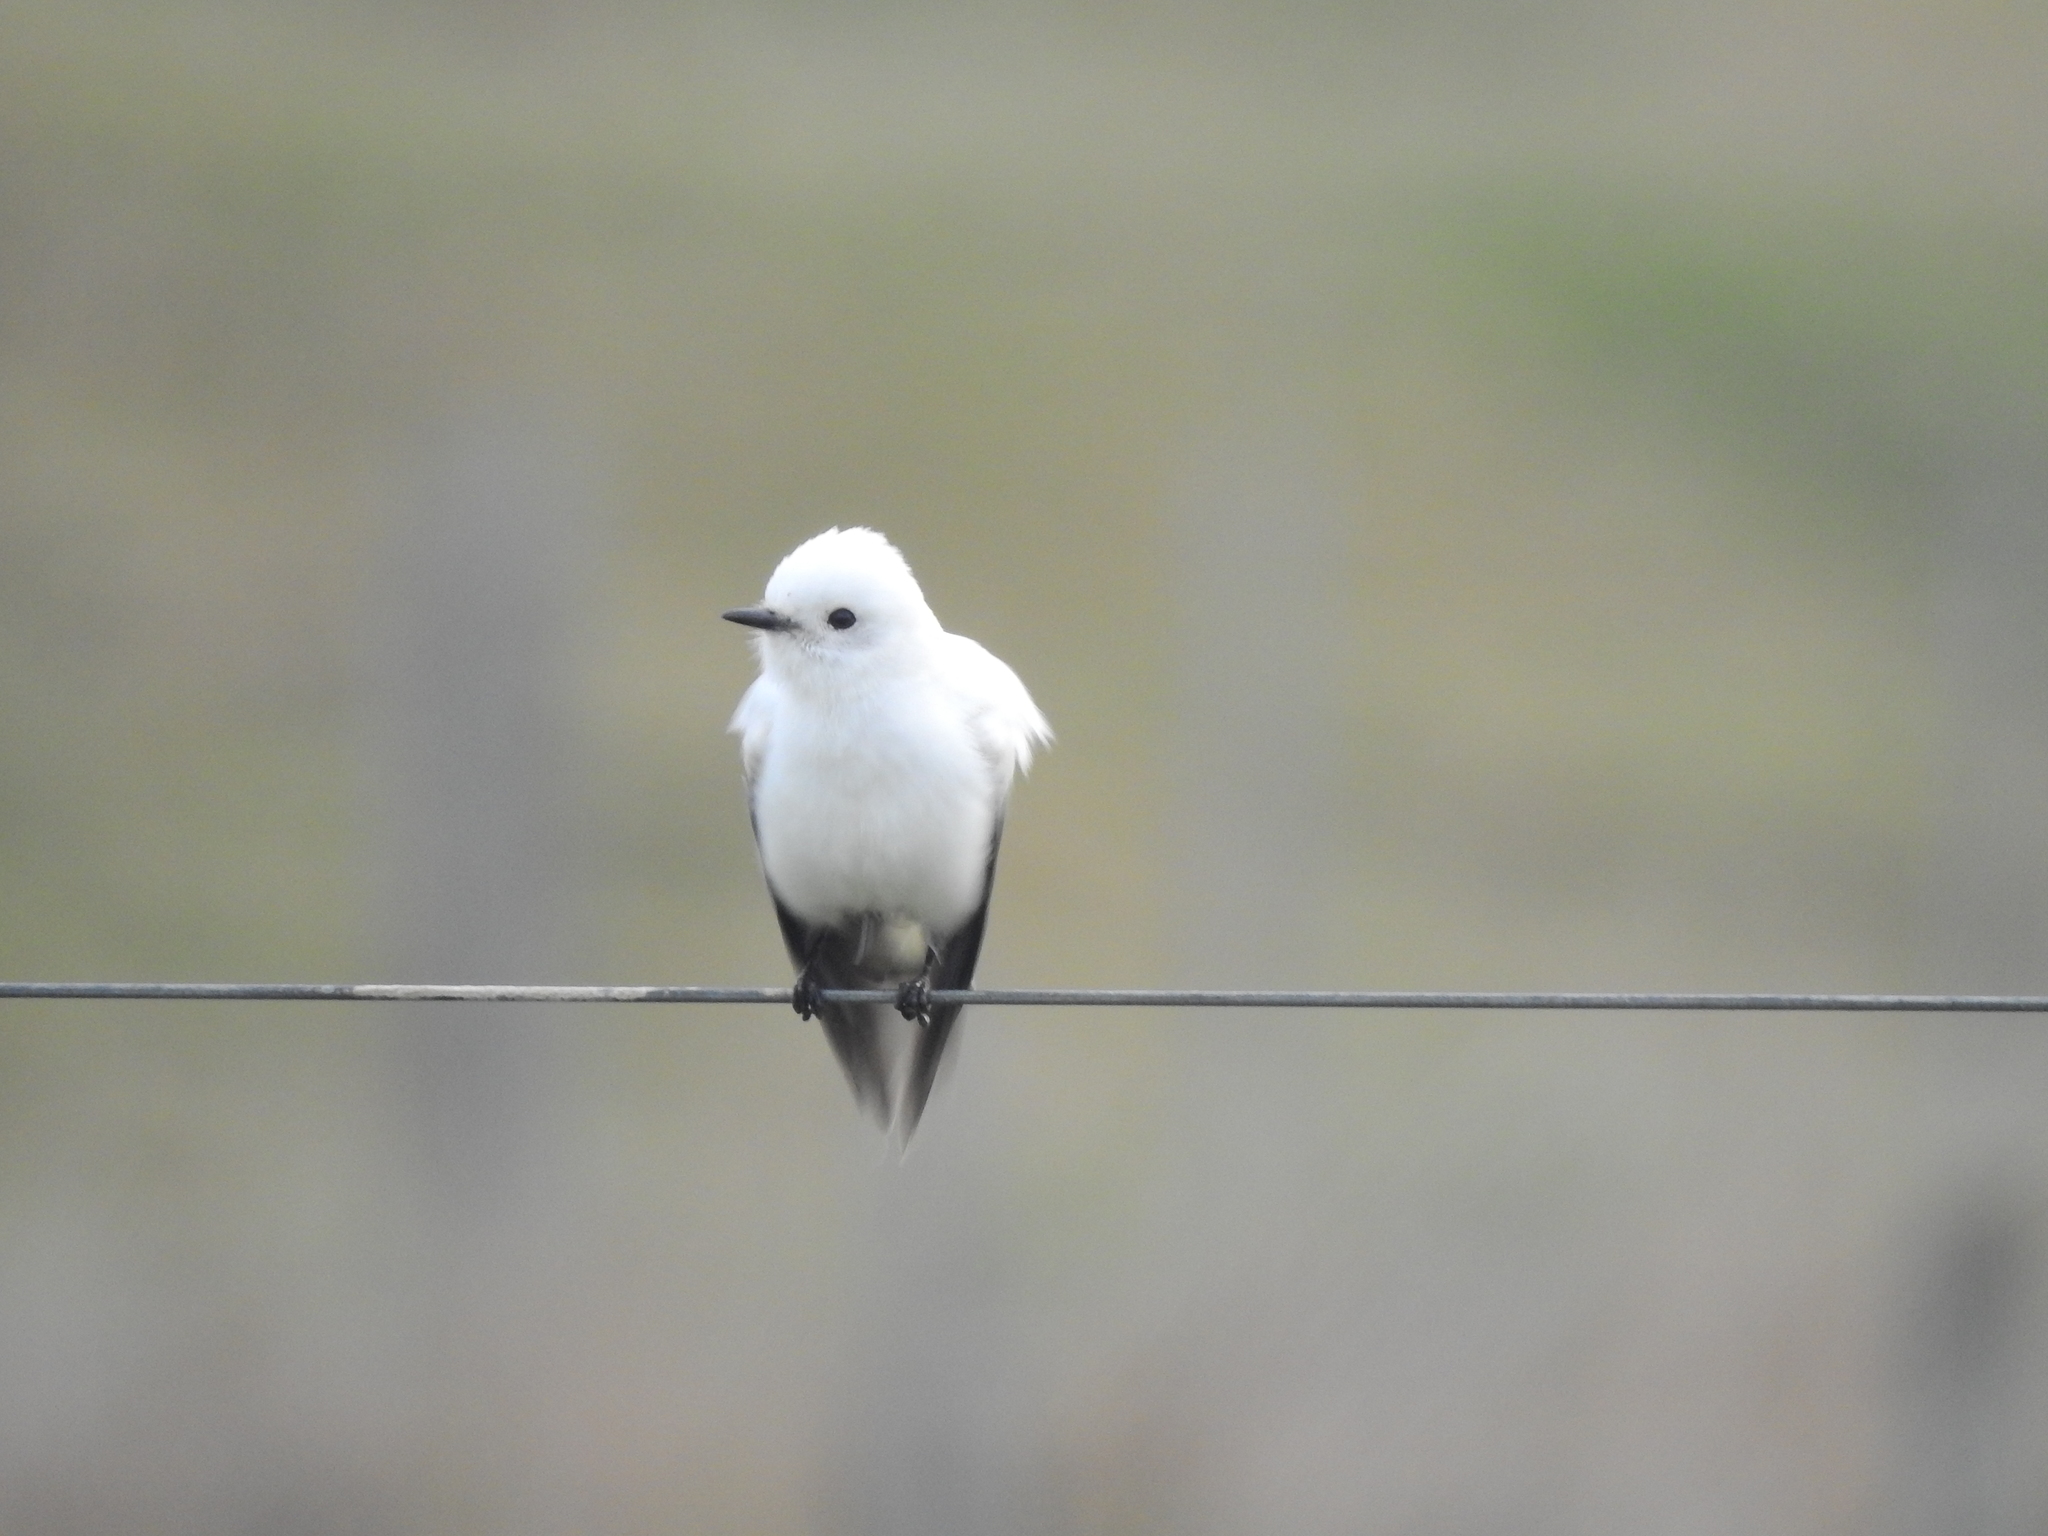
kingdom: Animalia
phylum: Chordata
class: Aves
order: Passeriformes
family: Tyrannidae
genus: Xolmis
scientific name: Xolmis irupero
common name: White monjita
